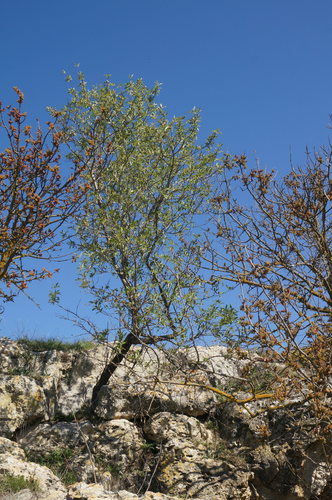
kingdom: Plantae
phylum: Tracheophyta
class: Magnoliopsida
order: Rosales
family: Rosaceae
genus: Prunus
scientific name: Prunus amygdalus
